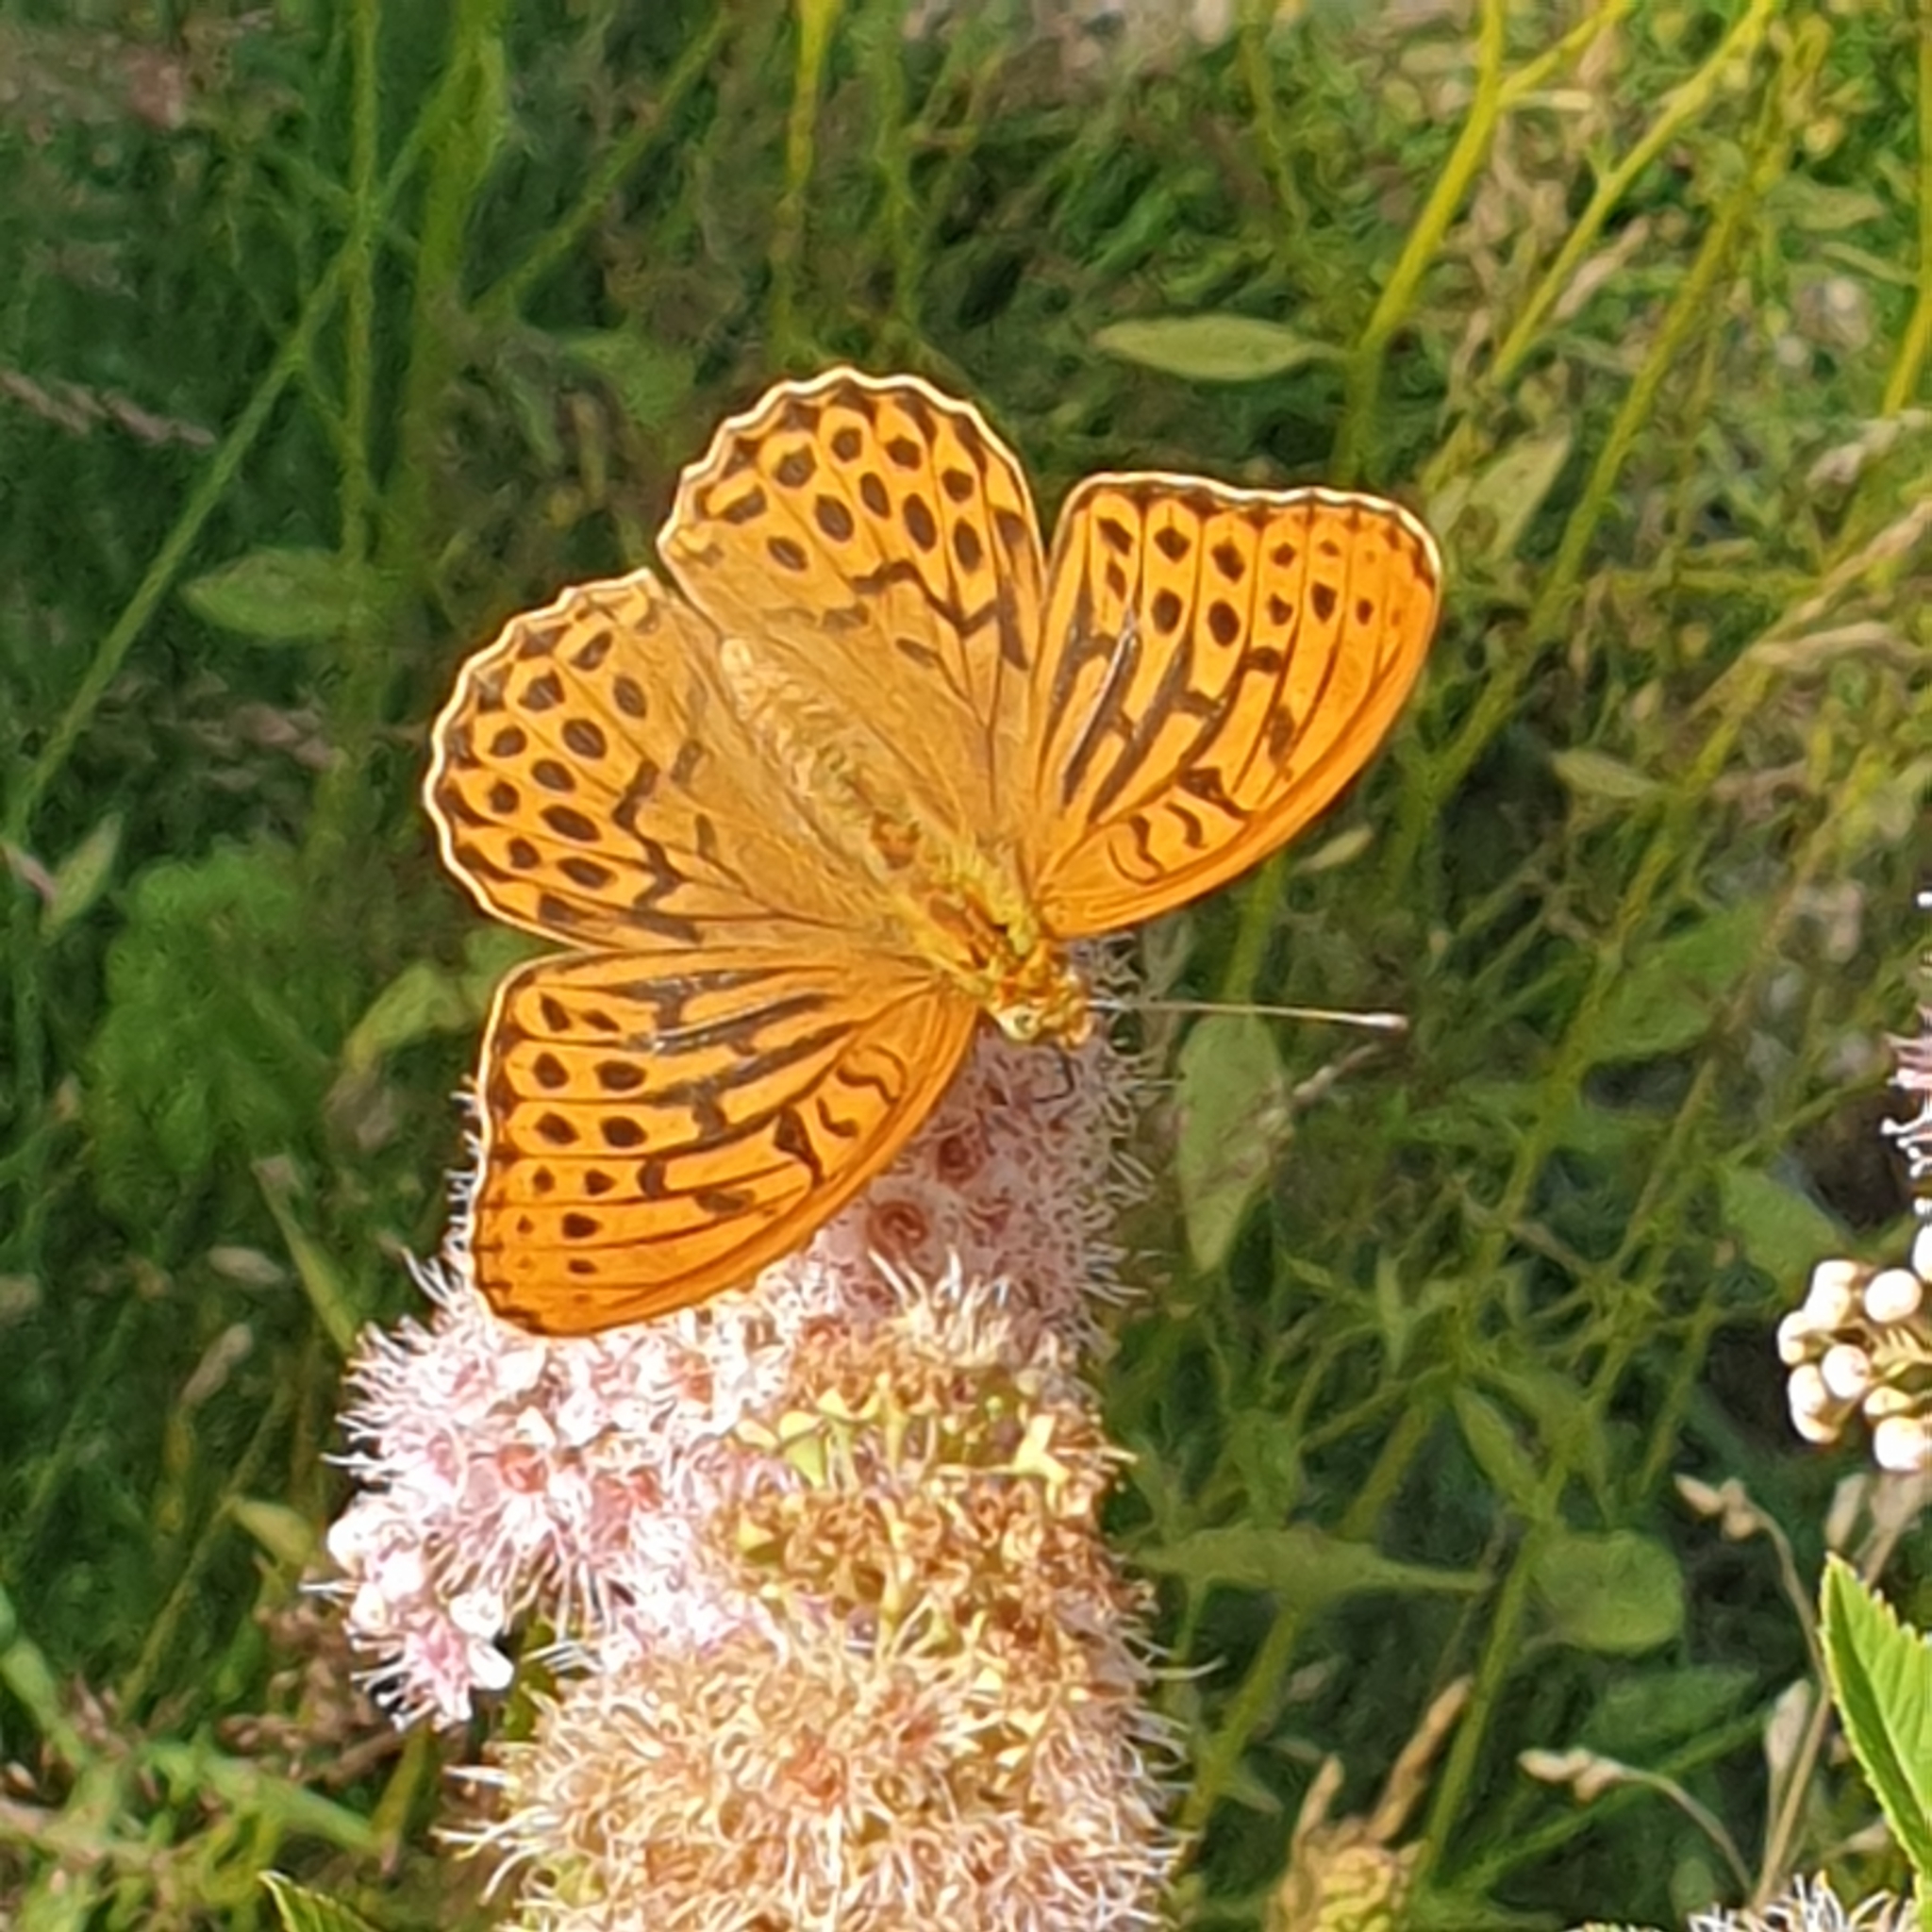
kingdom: Animalia
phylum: Arthropoda
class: Insecta
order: Lepidoptera
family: Nymphalidae
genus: Argynnis
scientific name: Argynnis paphia
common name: Silver-washed fritillary
